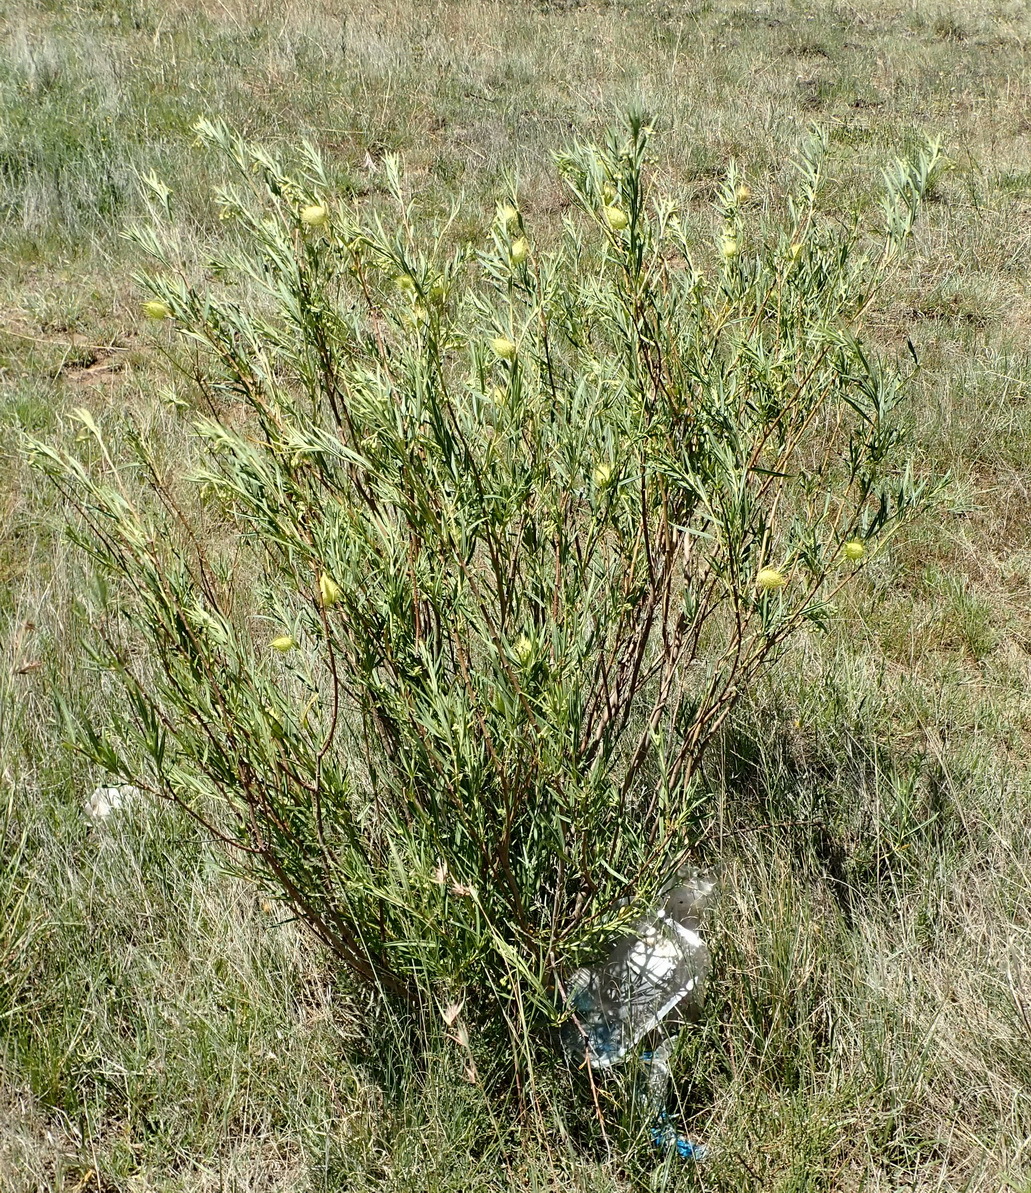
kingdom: Plantae
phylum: Tracheophyta
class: Magnoliopsida
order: Gentianales
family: Apocynaceae
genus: Gomphocarpus
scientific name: Gomphocarpus fruticosus
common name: Milkweed
